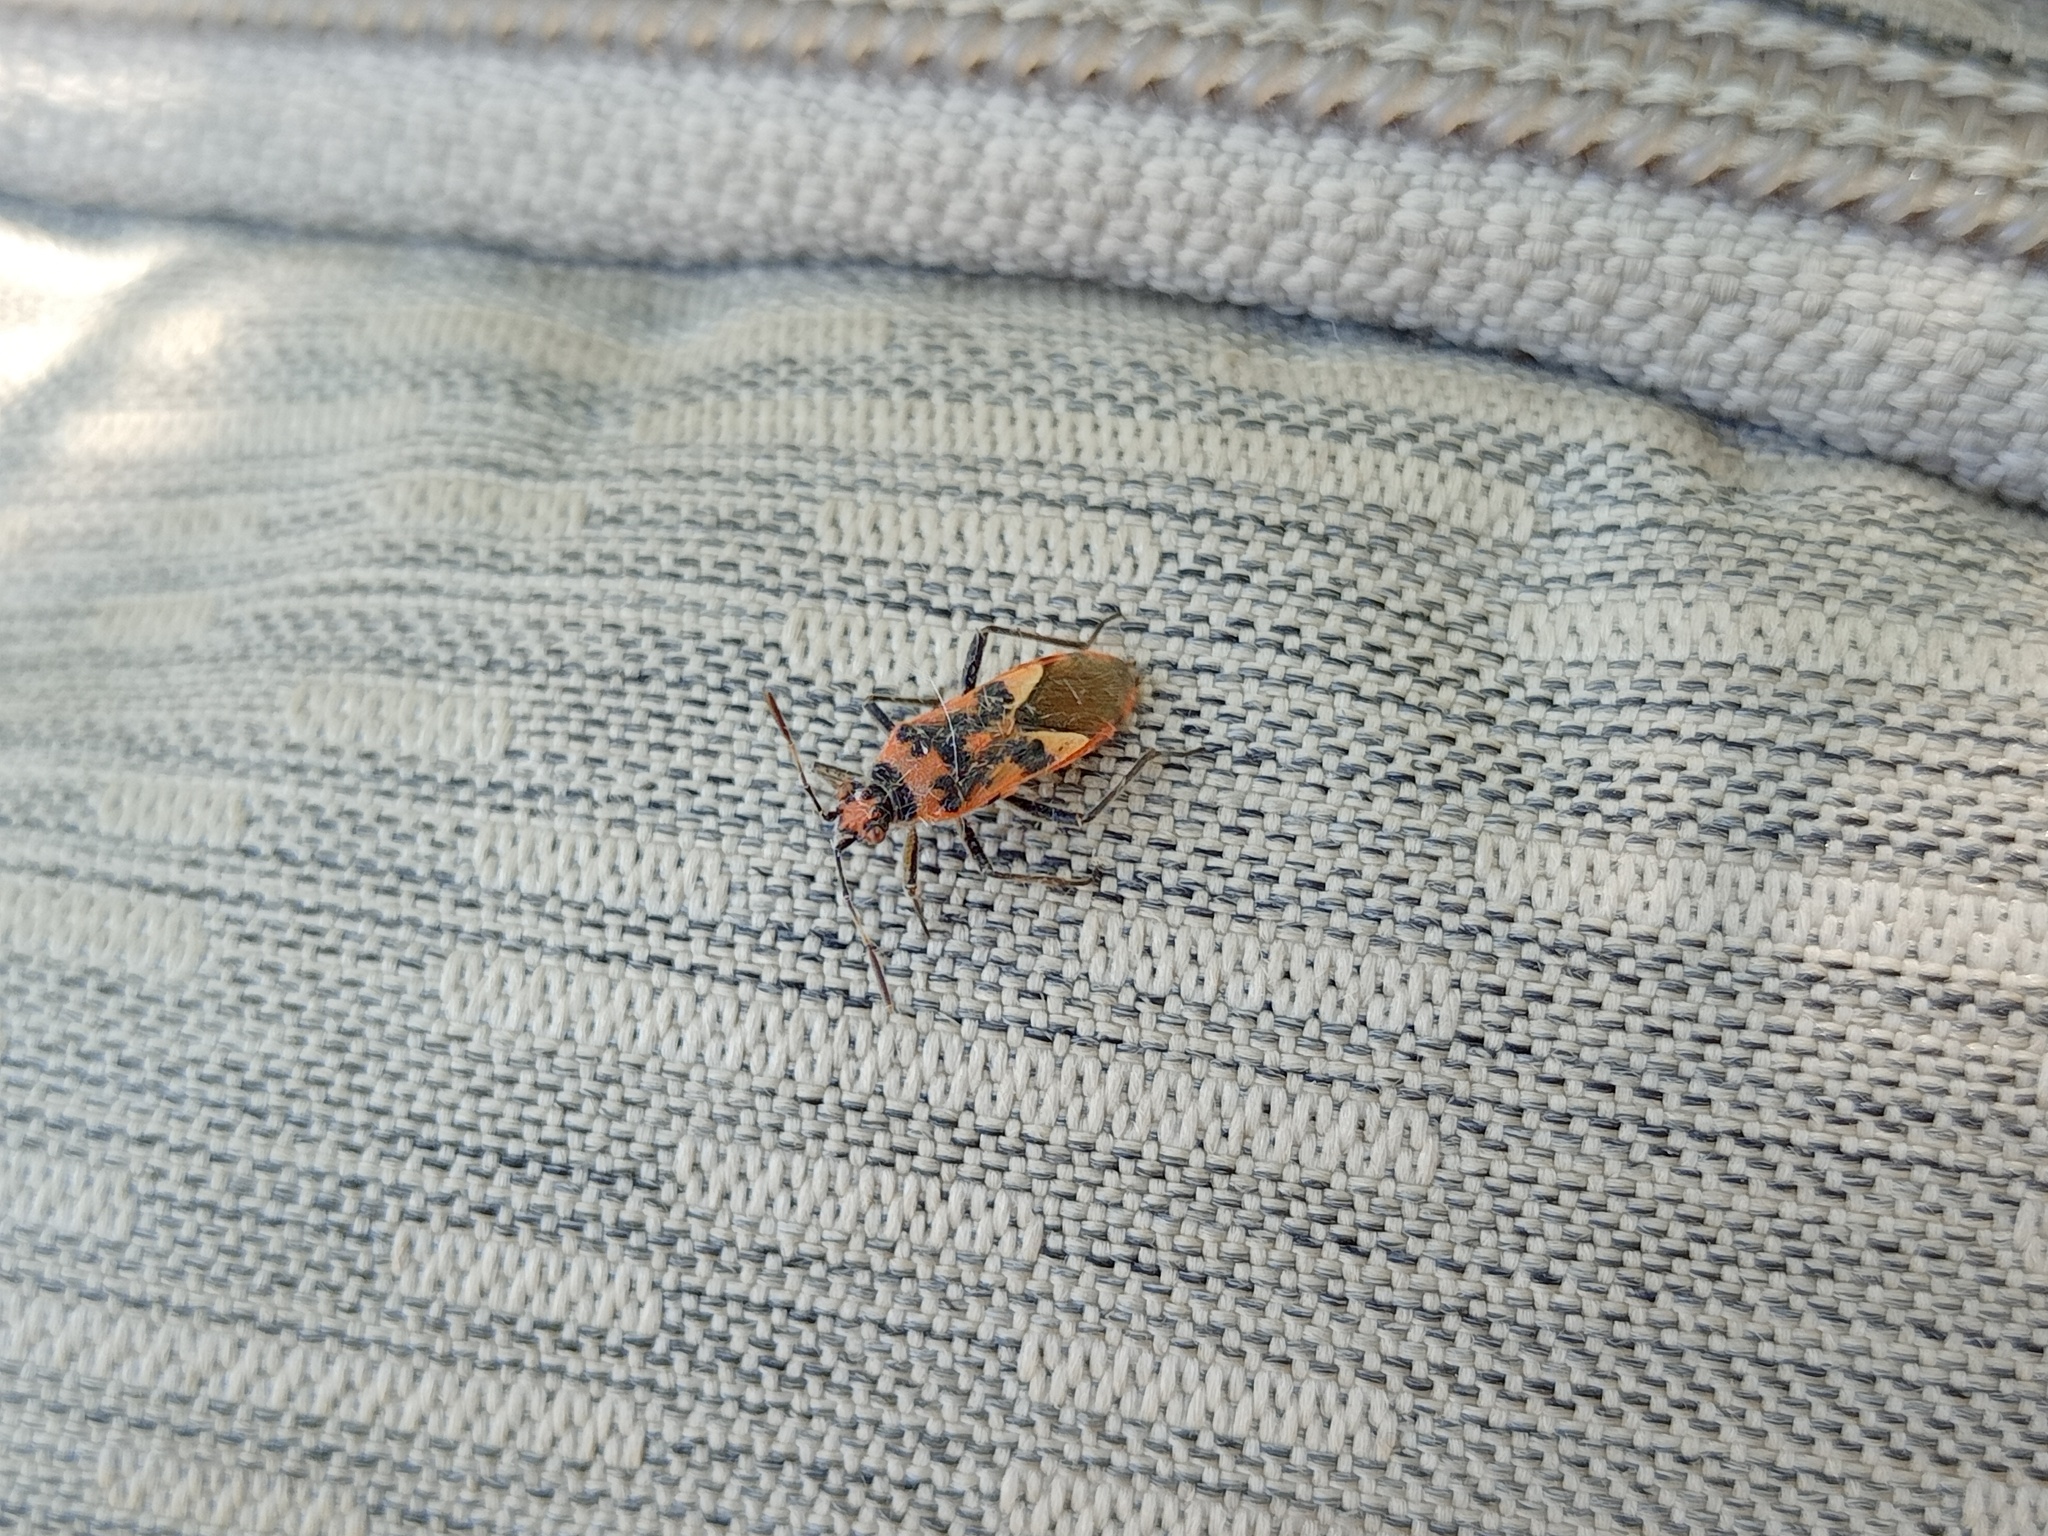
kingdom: Animalia
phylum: Arthropoda
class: Insecta
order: Hemiptera
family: Rhopalidae
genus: Corizus
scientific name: Corizus hyoscyami
